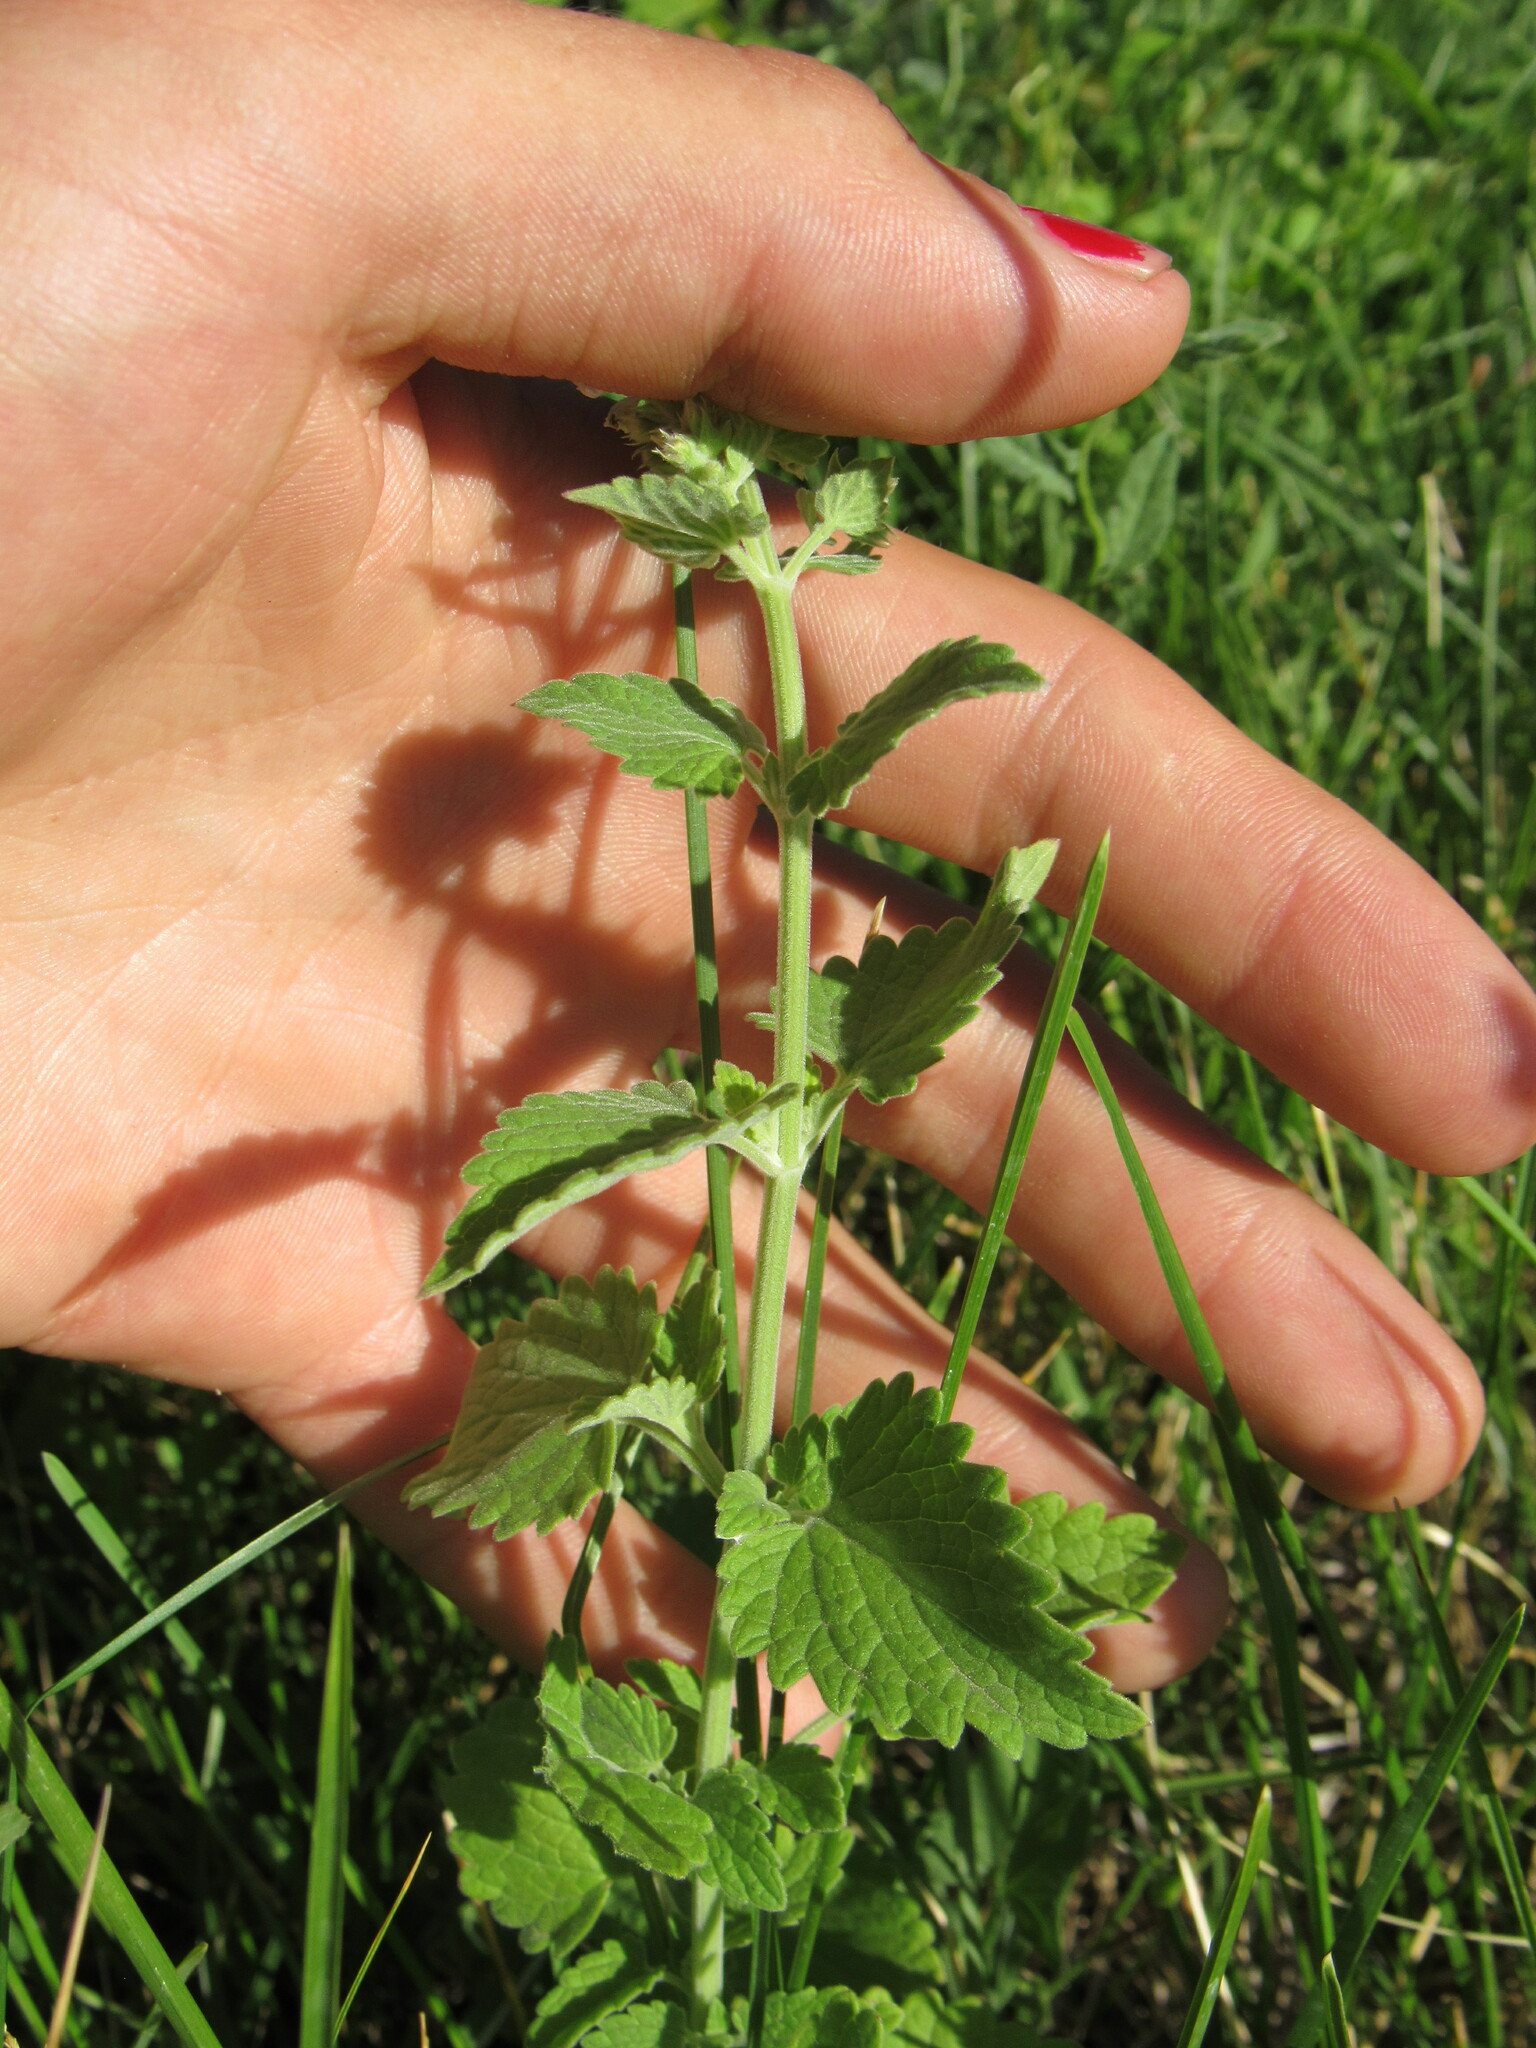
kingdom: Plantae
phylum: Tracheophyta
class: Magnoliopsida
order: Lamiales
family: Lamiaceae
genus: Nepeta
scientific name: Nepeta cataria
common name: Catnip
